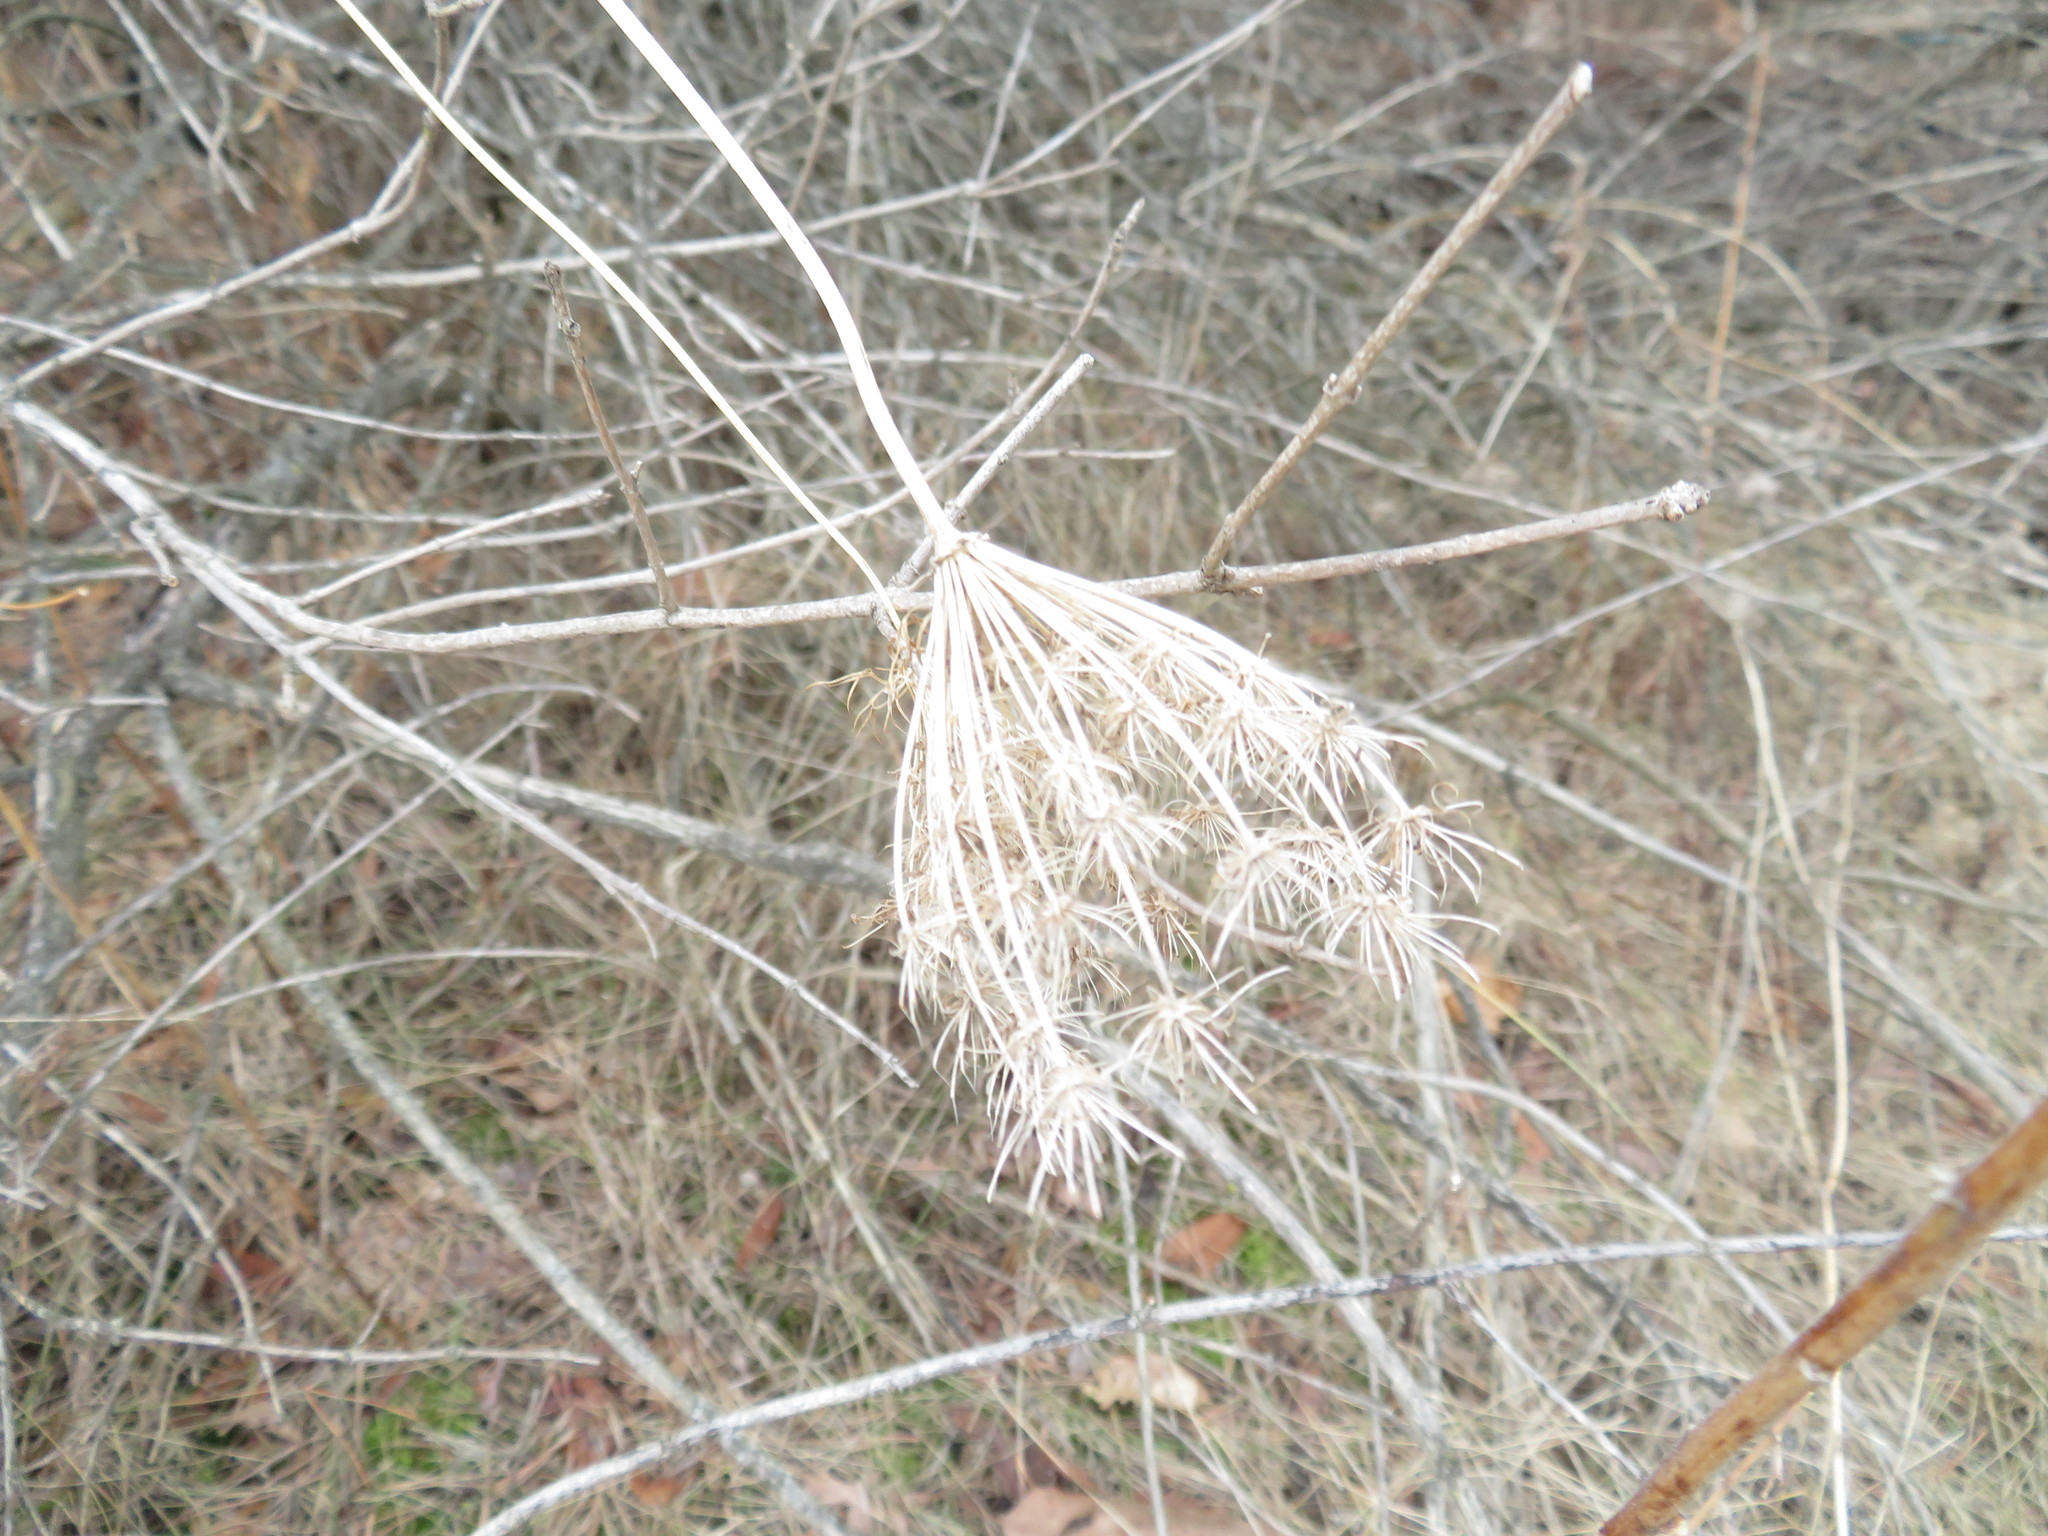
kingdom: Plantae
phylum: Tracheophyta
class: Magnoliopsida
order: Apiales
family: Apiaceae
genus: Daucus
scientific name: Daucus carota
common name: Wild carrot
